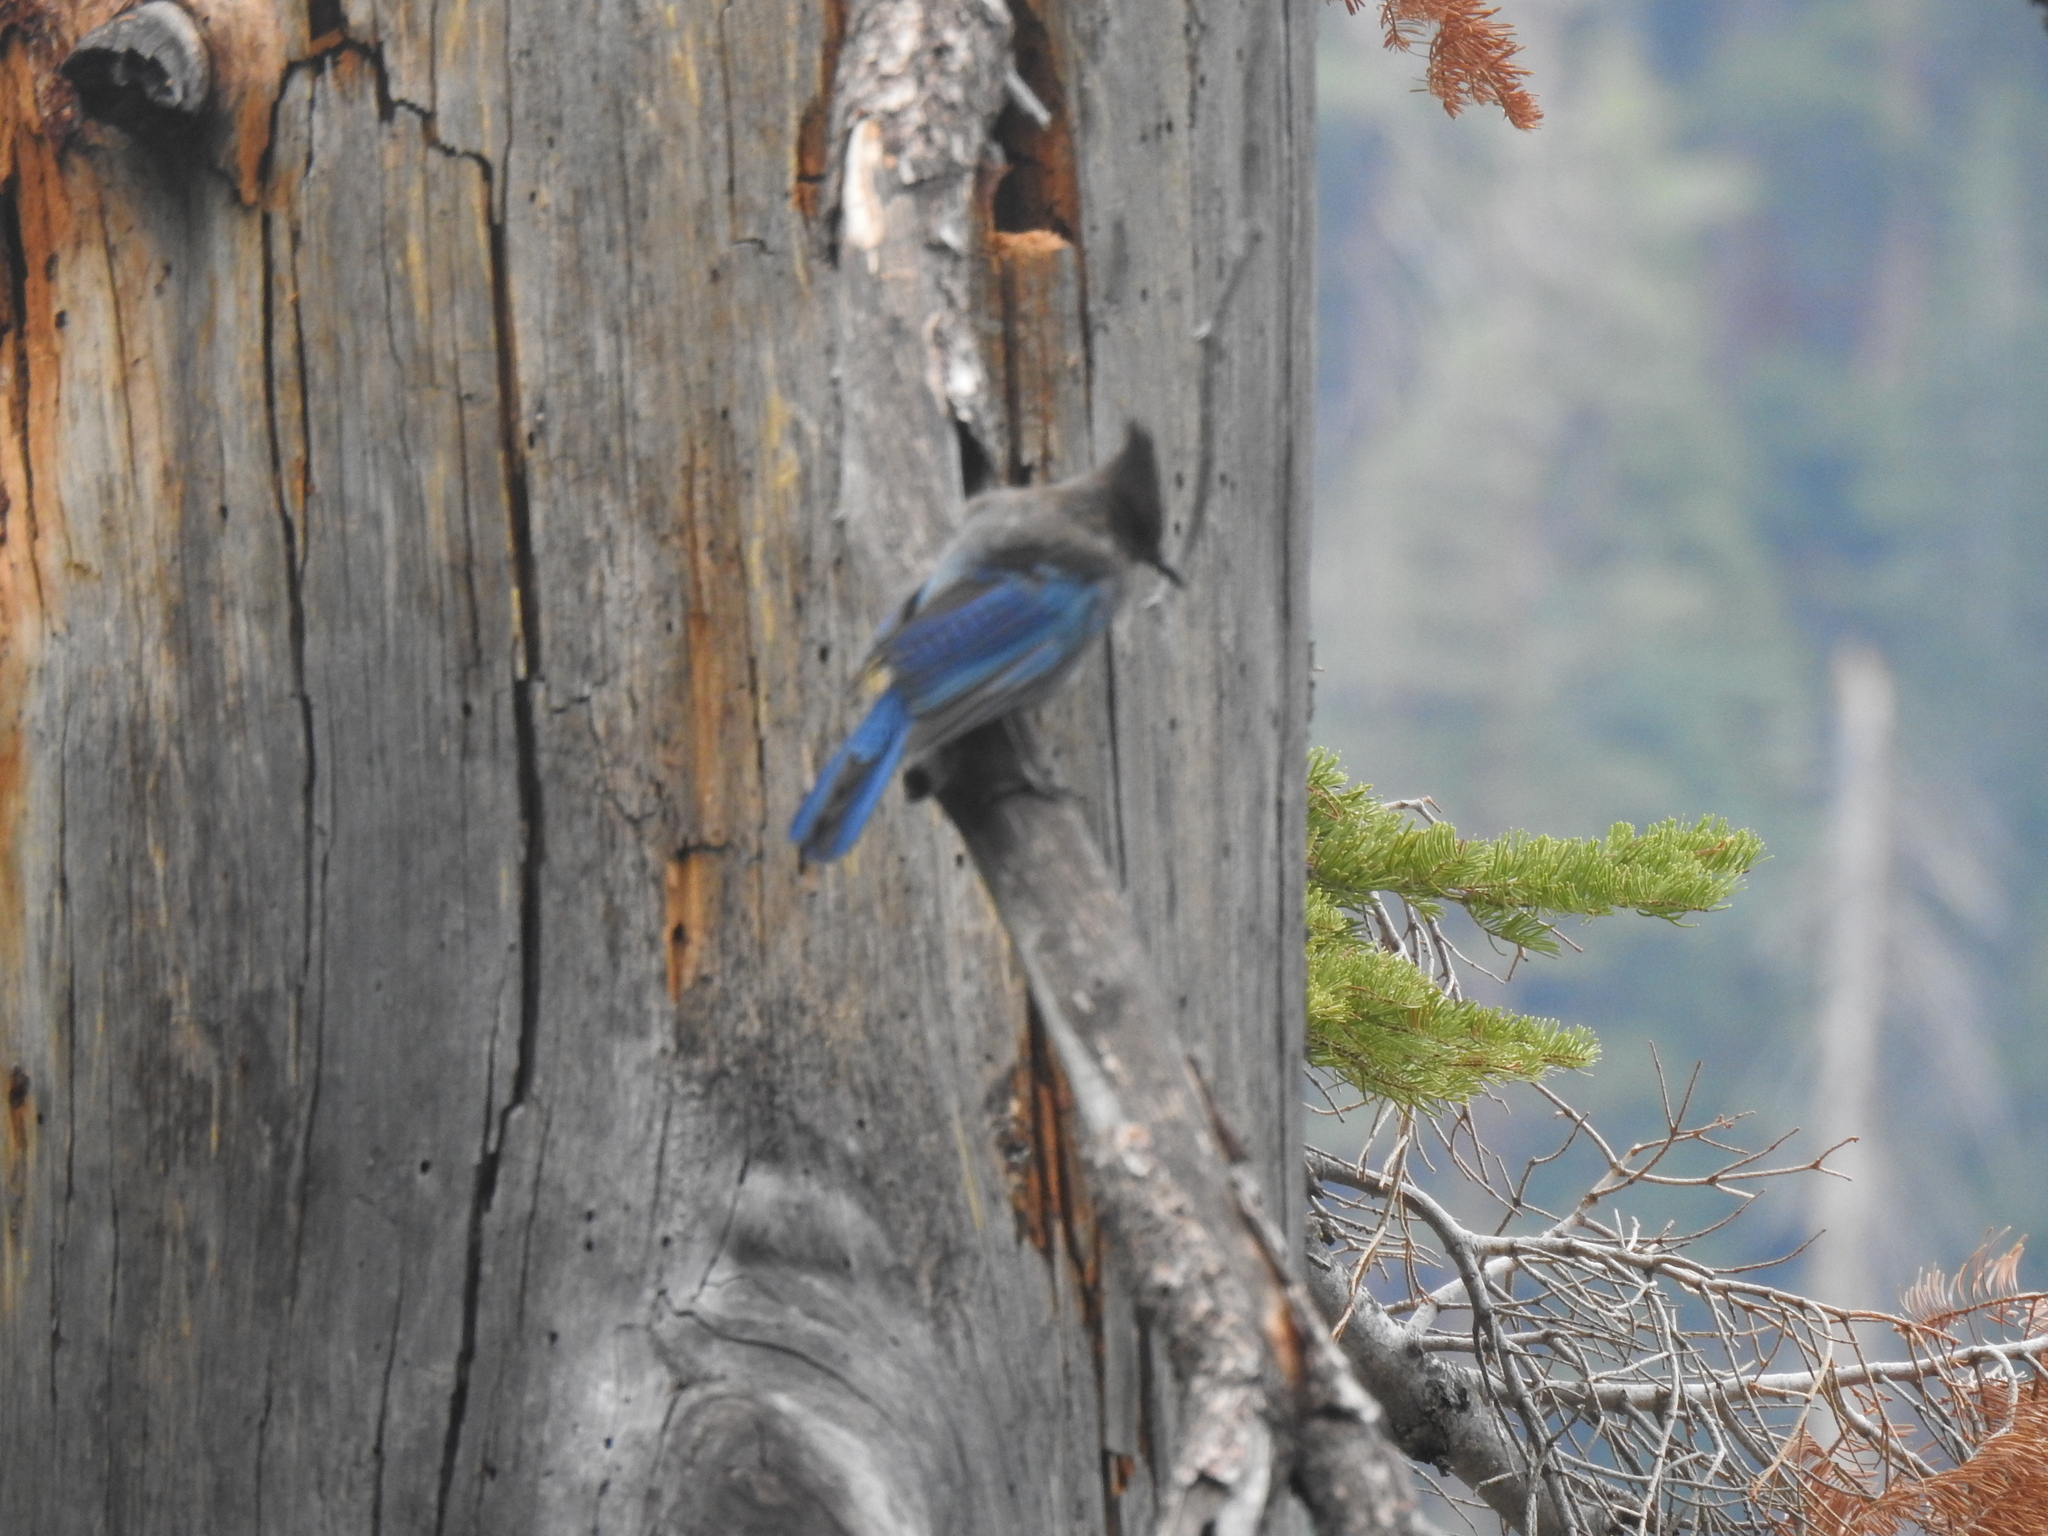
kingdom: Animalia
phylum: Chordata
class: Aves
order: Passeriformes
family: Corvidae
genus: Cyanocitta
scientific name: Cyanocitta stelleri
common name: Steller's jay
